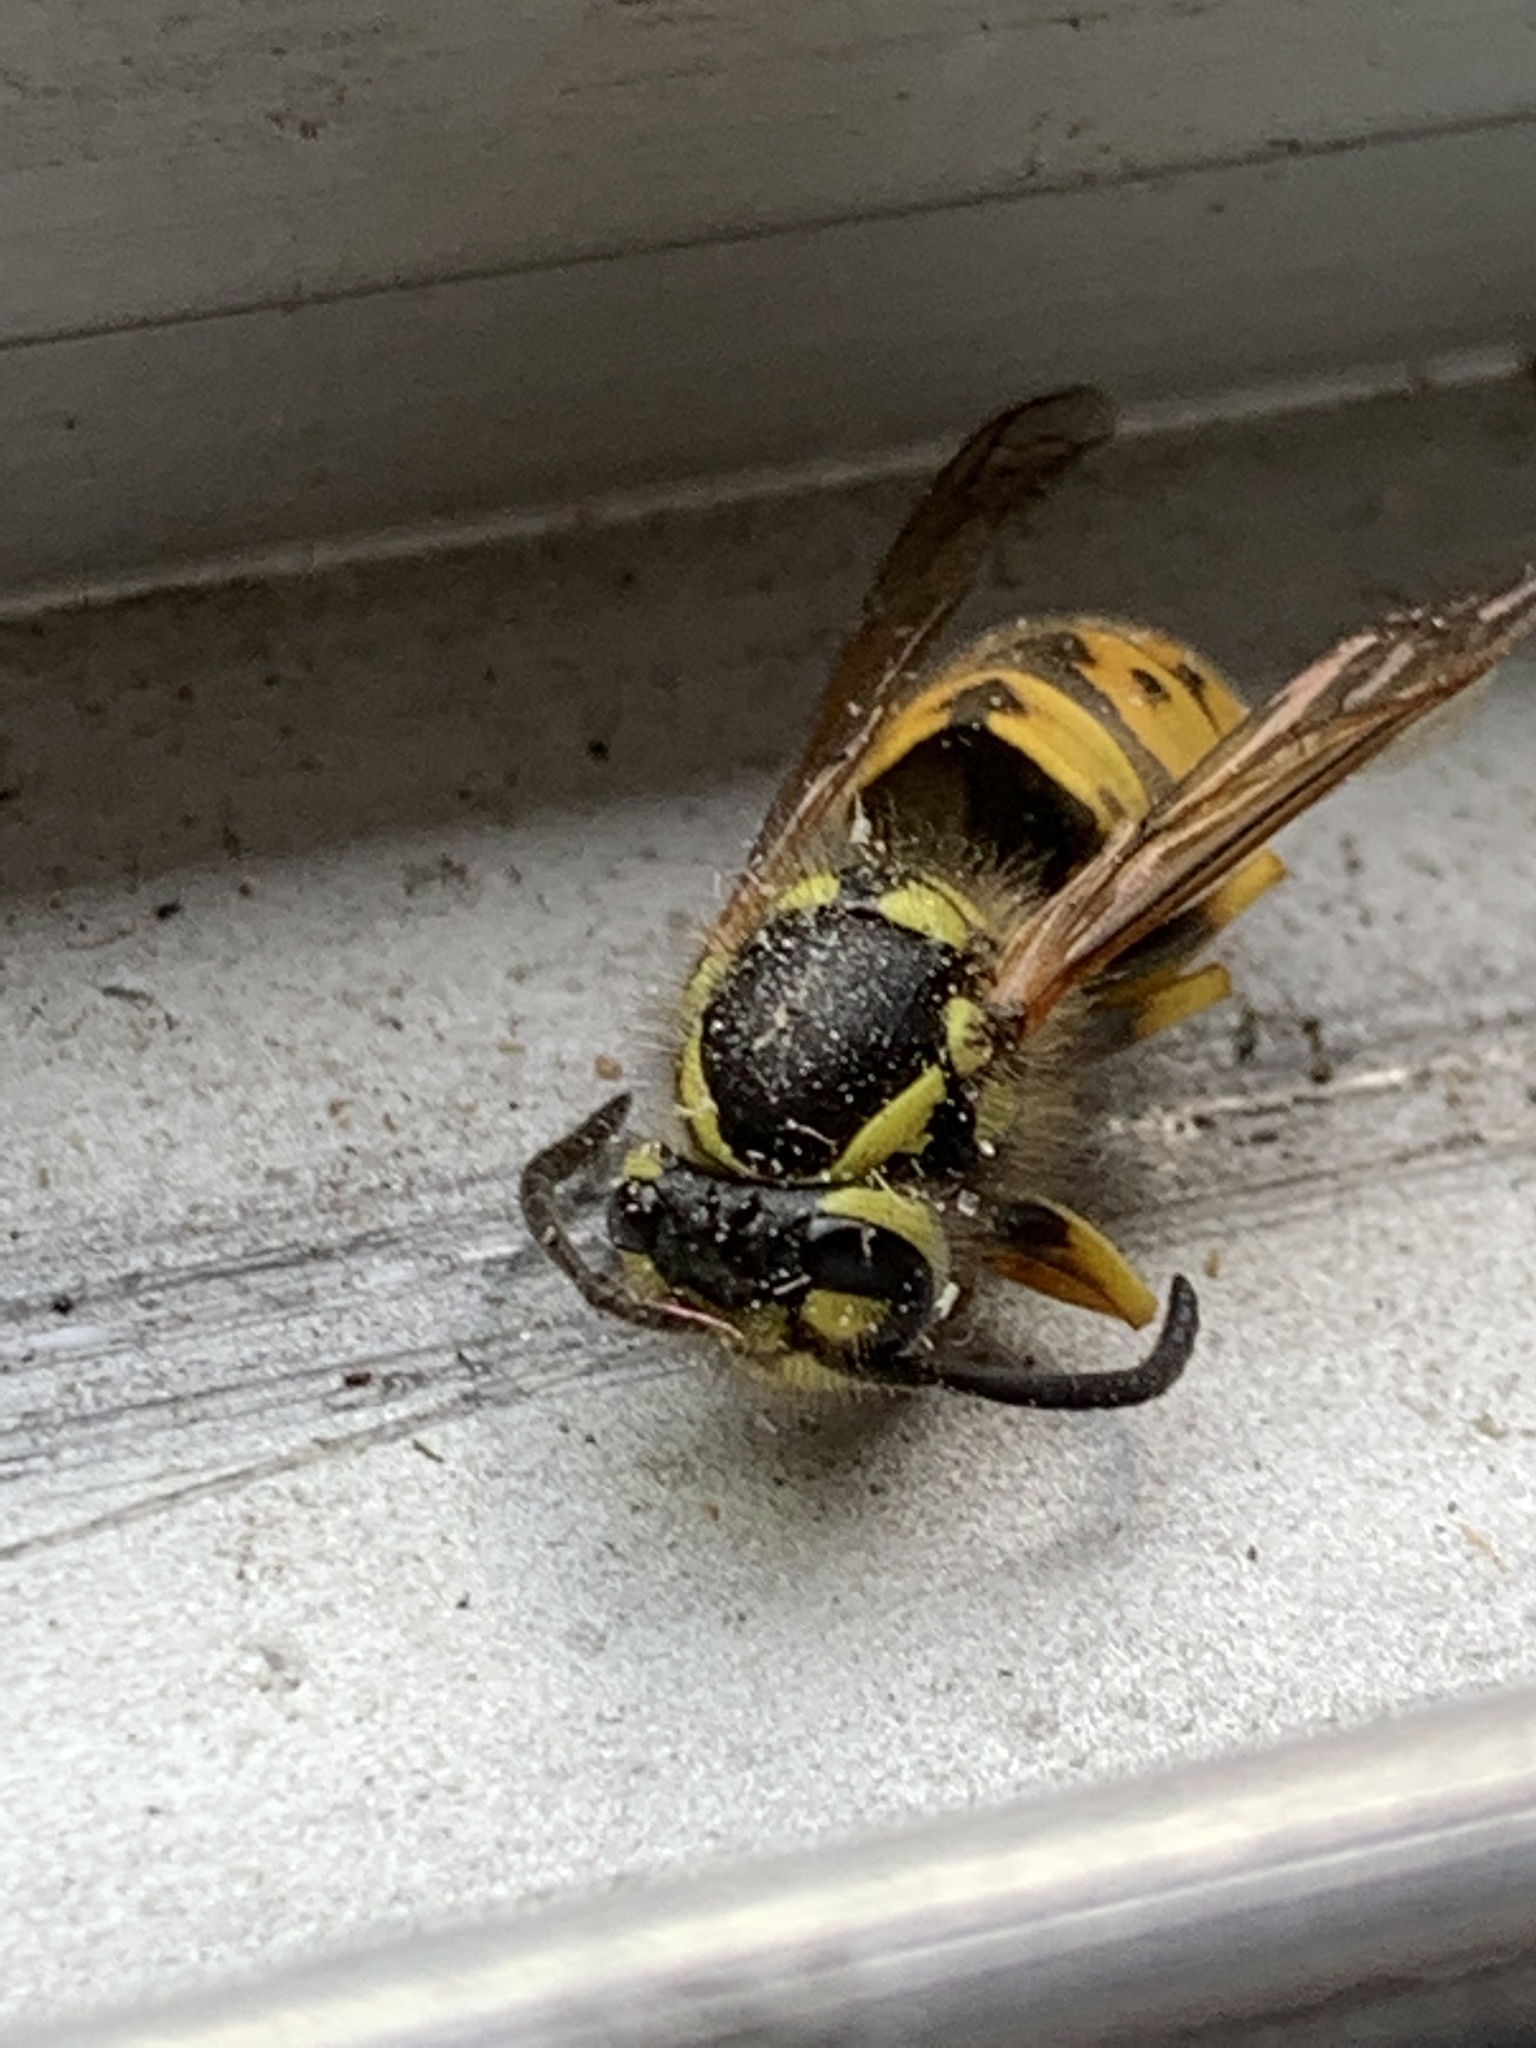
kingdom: Animalia
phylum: Arthropoda
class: Insecta
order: Hymenoptera
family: Vespidae
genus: Vespula
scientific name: Vespula germanica
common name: German wasp
